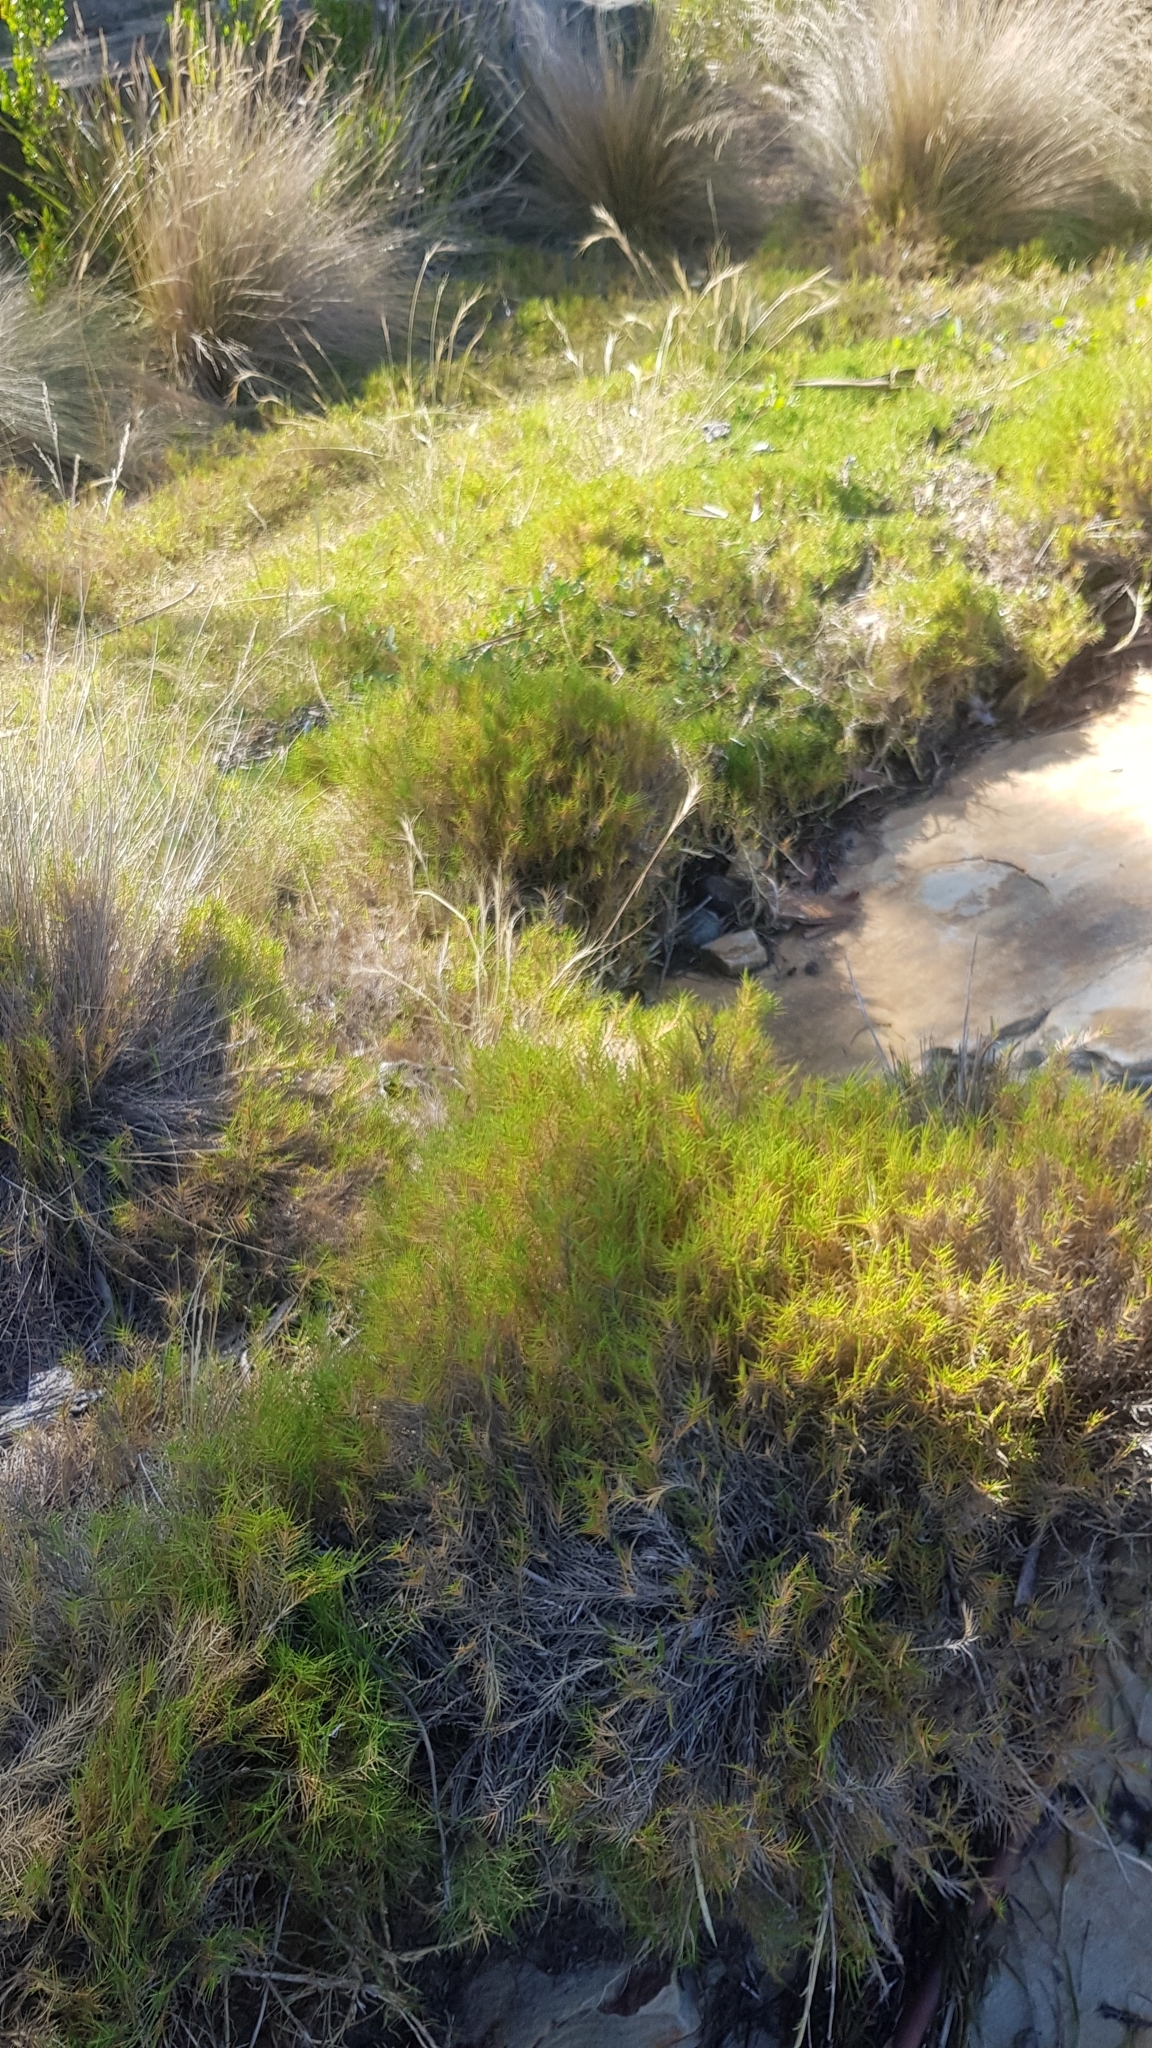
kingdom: Plantae
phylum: Tracheophyta
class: Liliopsida
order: Poales
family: Poaceae
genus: Distichlis
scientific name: Distichlis distichophylla
